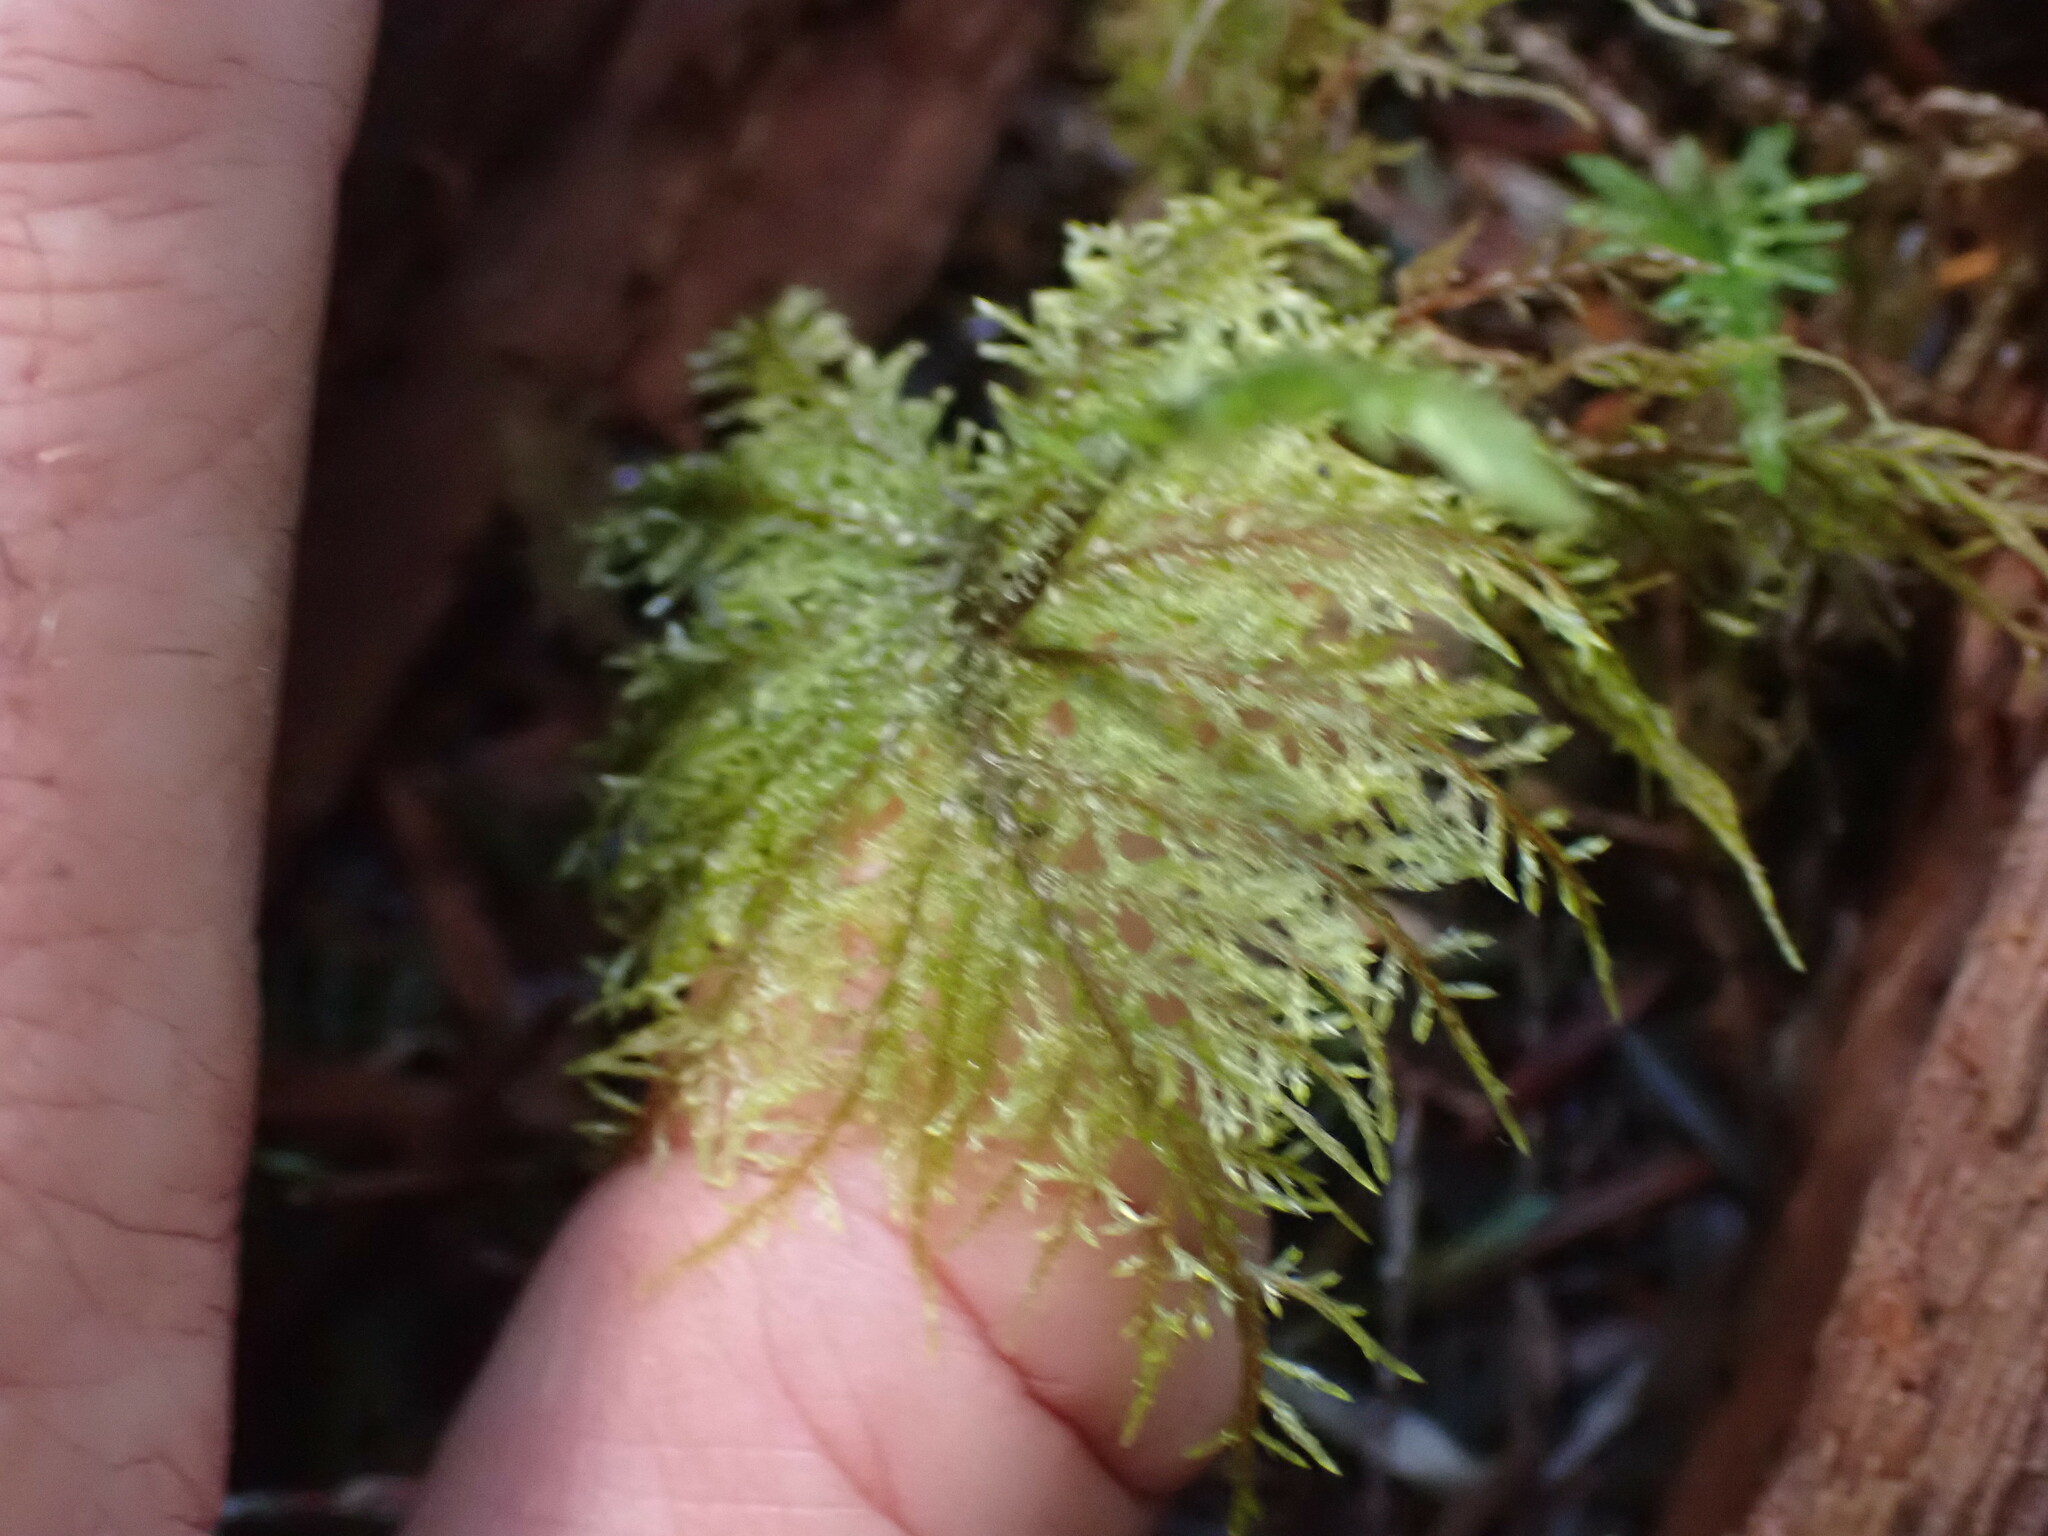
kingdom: Plantae
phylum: Bryophyta
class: Bryopsida
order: Hypnales
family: Hylocomiaceae
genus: Hylocomium
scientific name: Hylocomium splendens
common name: Stairstep moss
